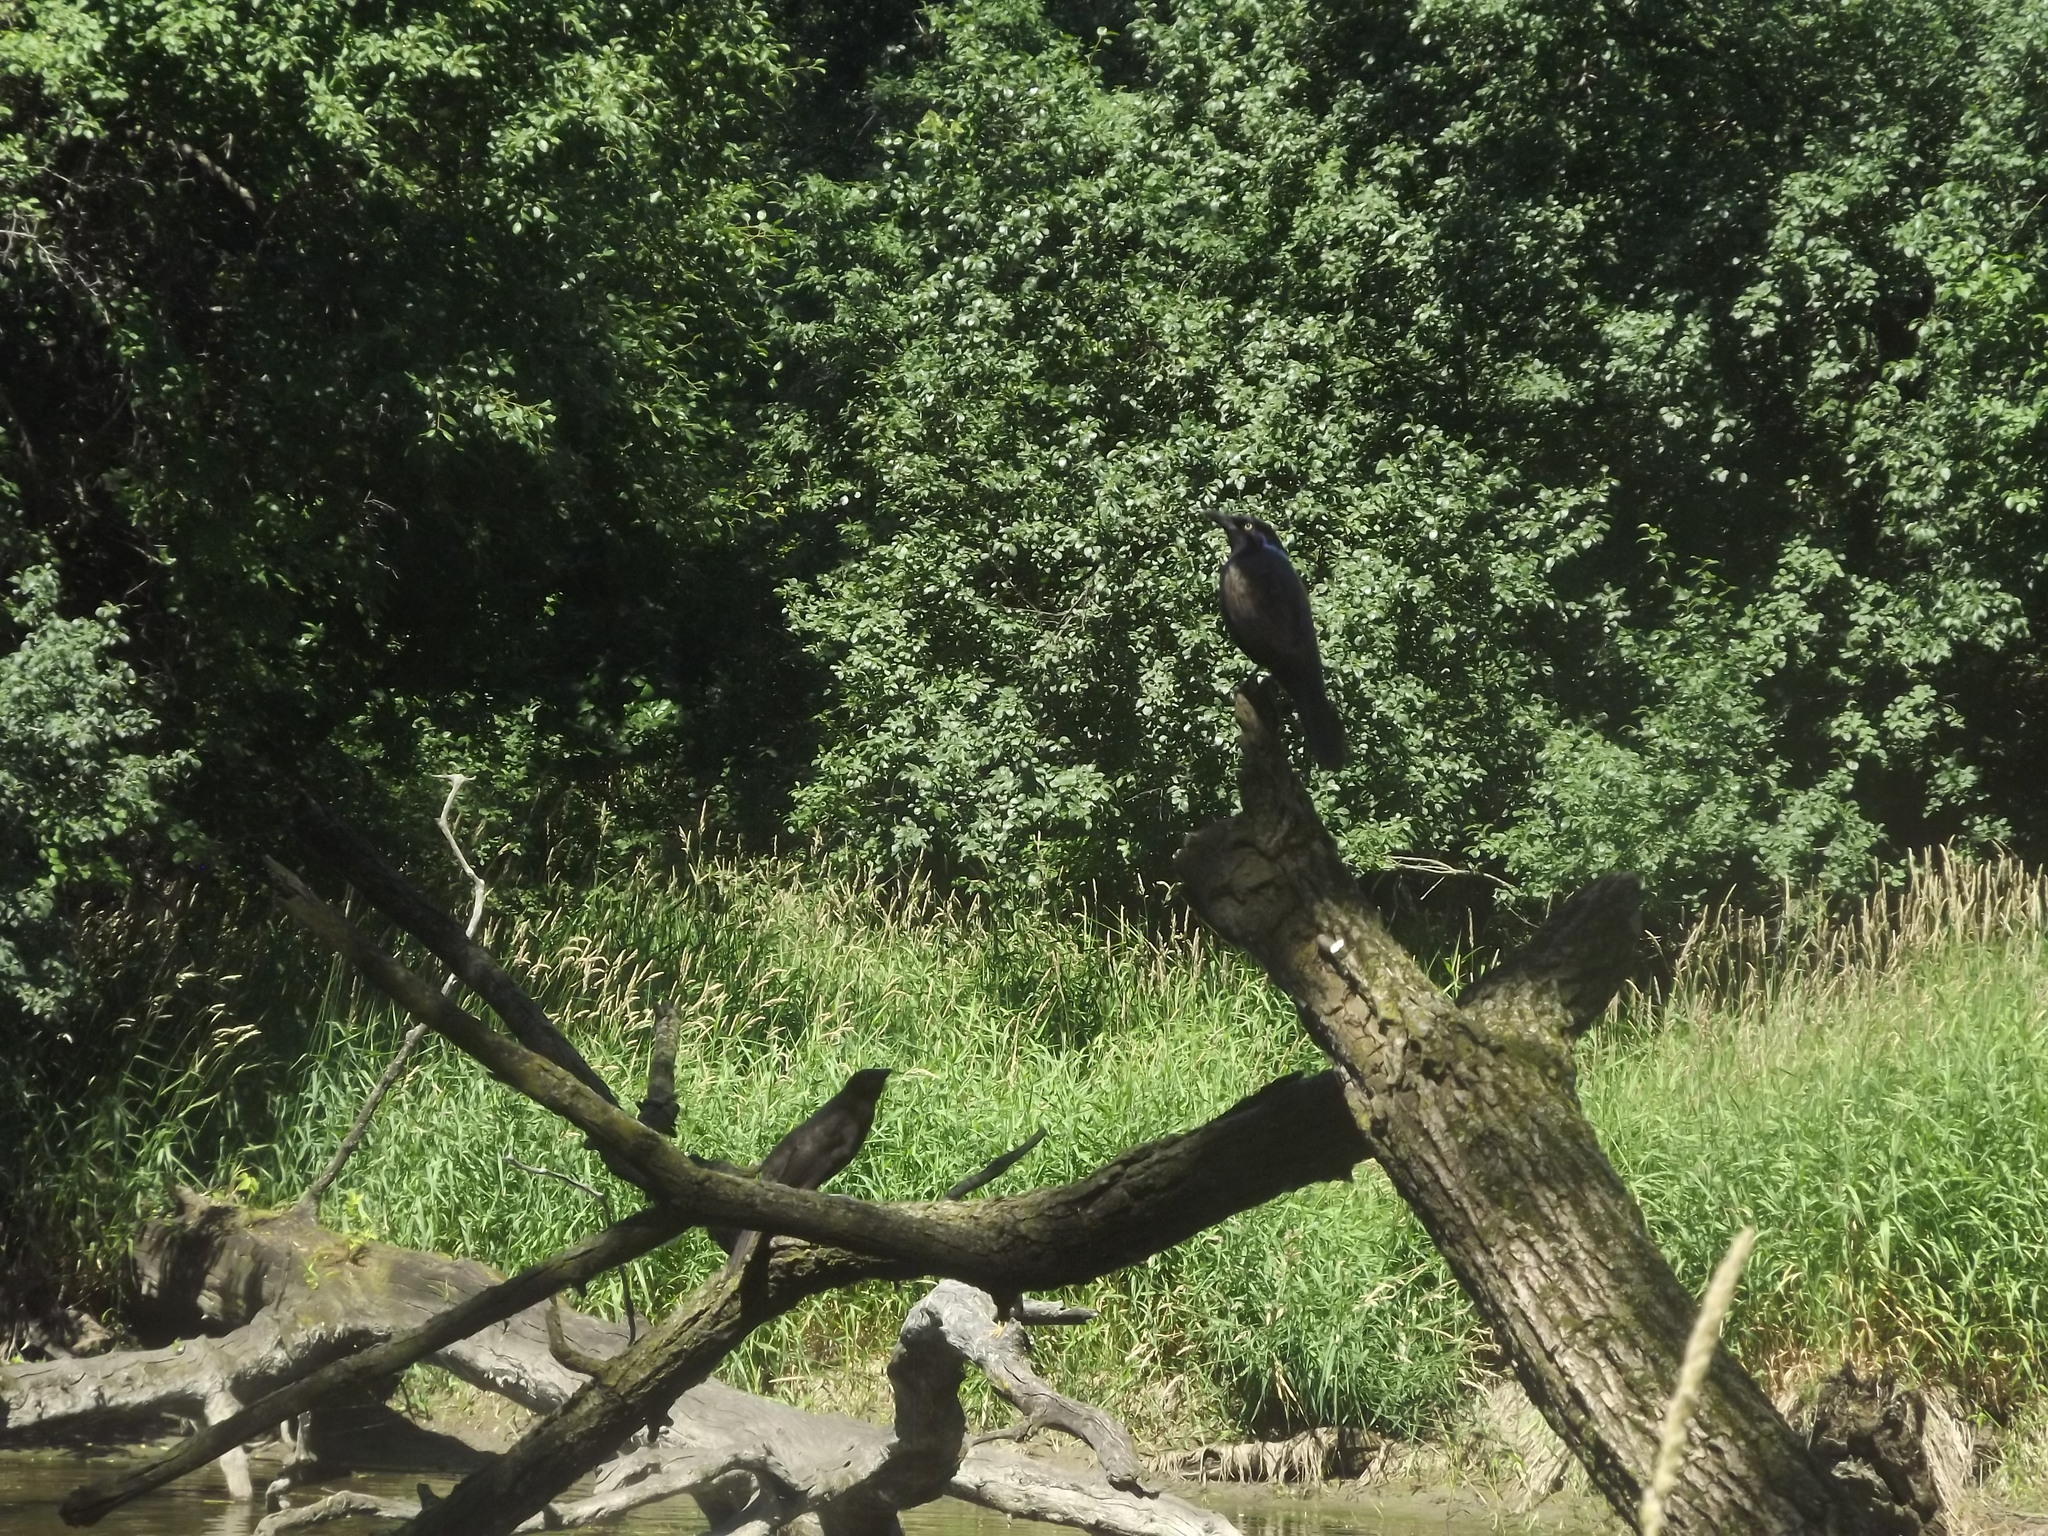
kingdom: Animalia
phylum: Chordata
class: Aves
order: Passeriformes
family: Icteridae
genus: Quiscalus
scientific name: Quiscalus quiscula
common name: Common grackle
